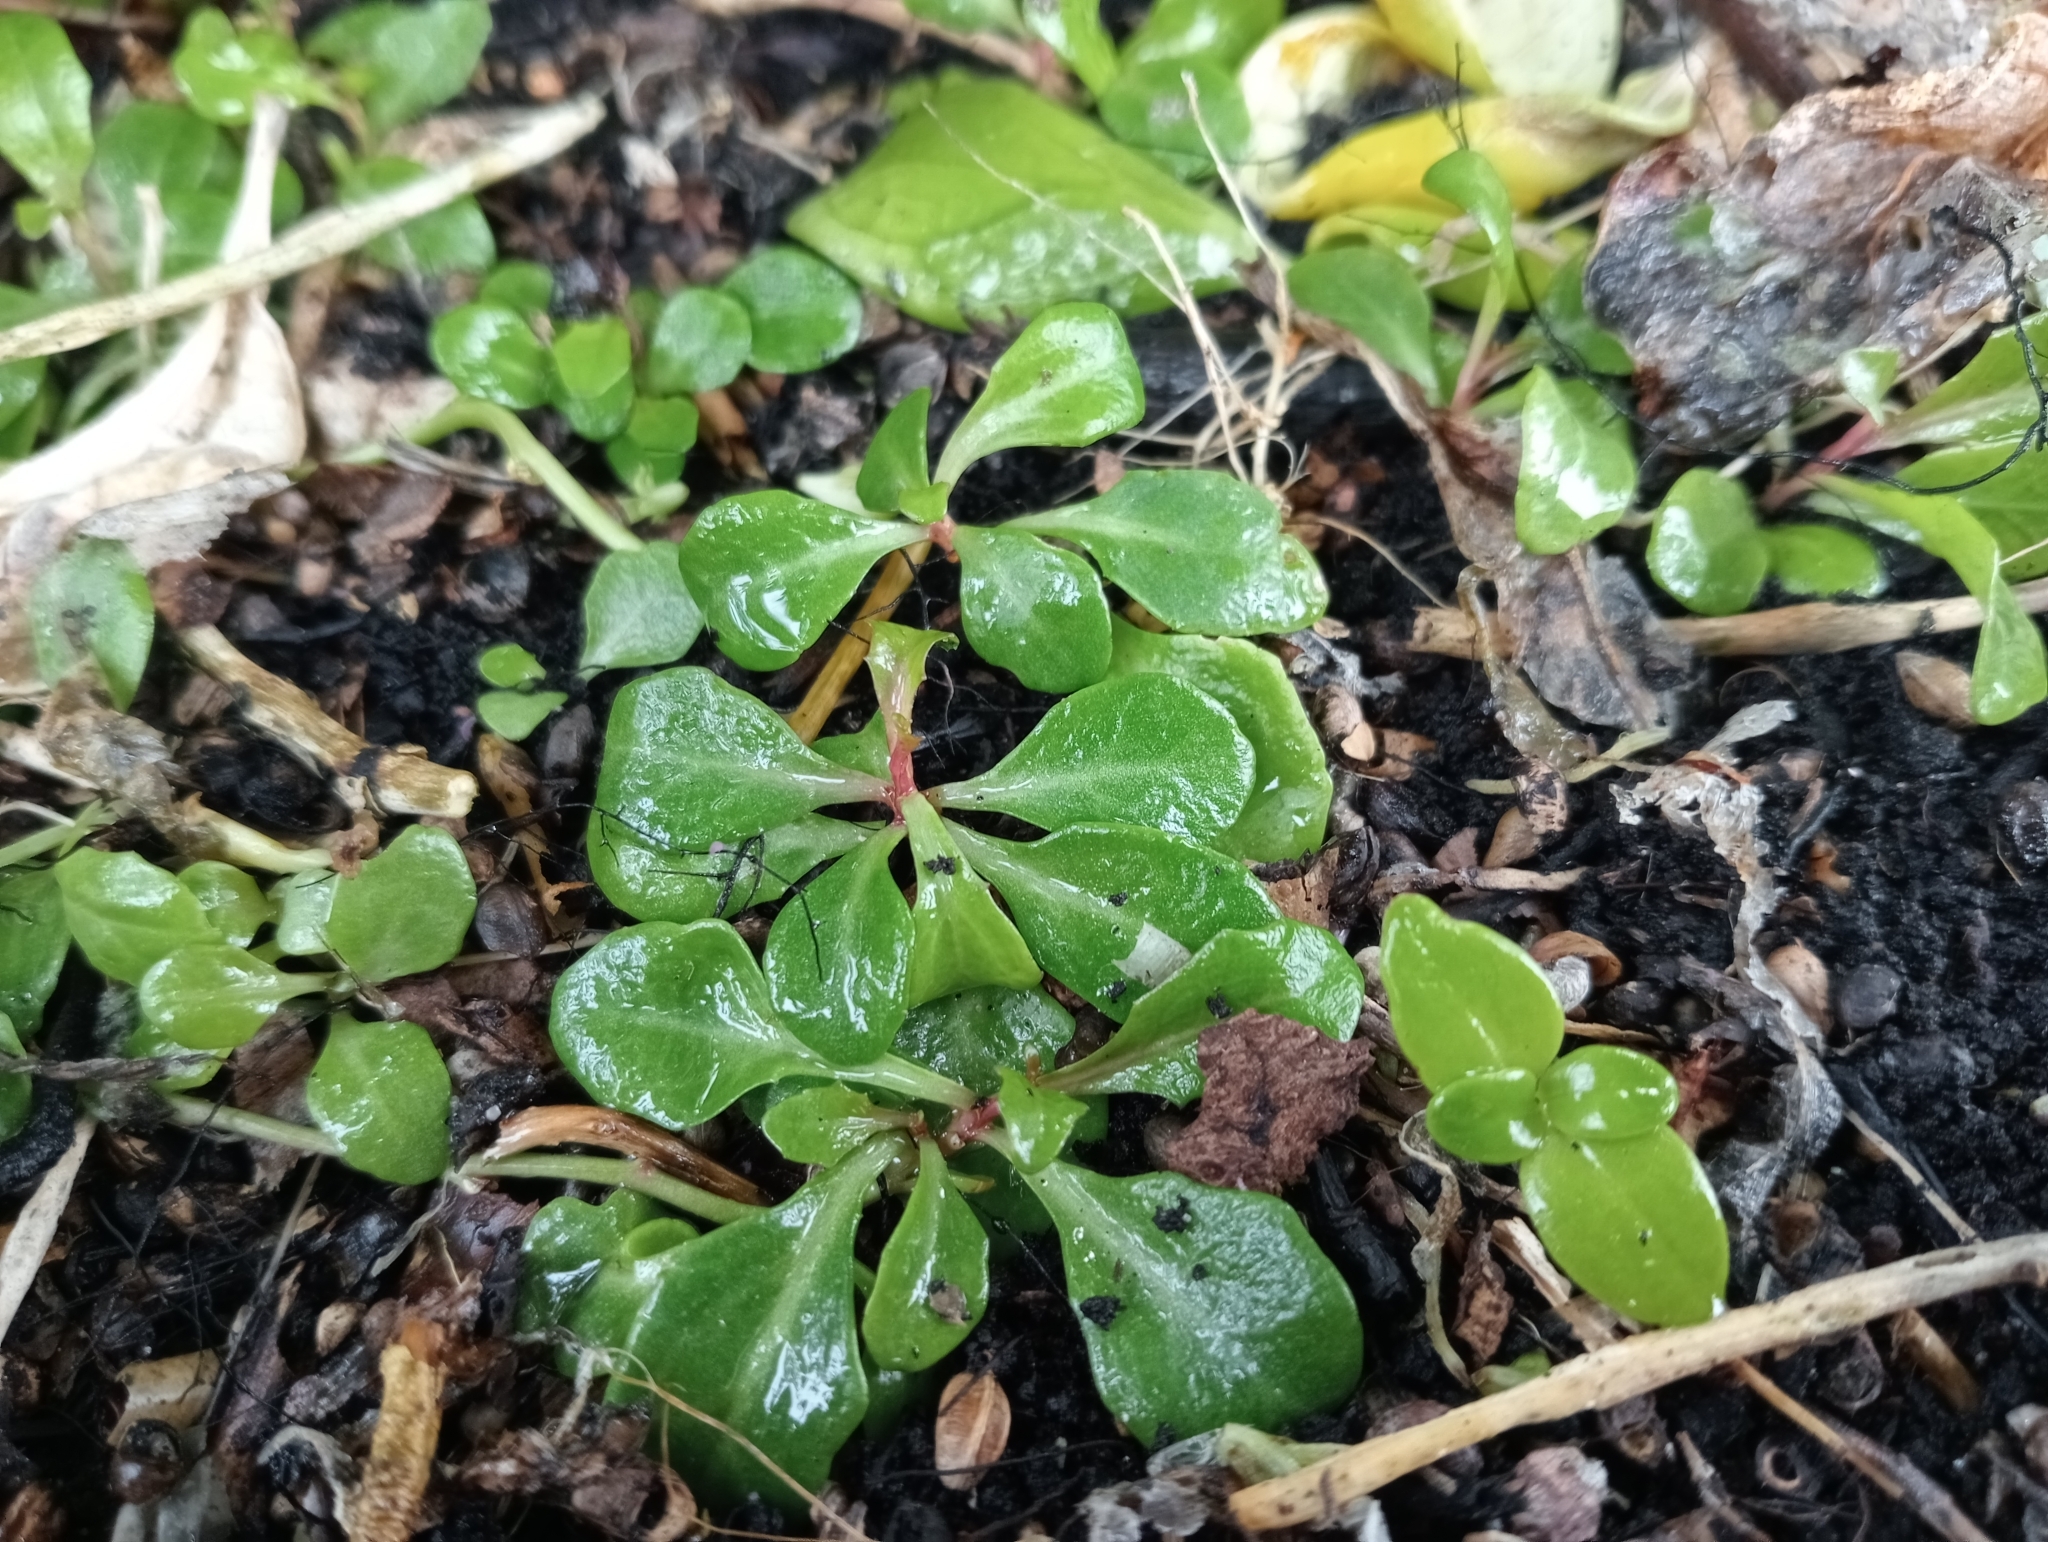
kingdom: Plantae
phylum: Tracheophyta
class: Magnoliopsida
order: Asterales
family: Campanulaceae
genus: Lobelia
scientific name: Lobelia anceps
